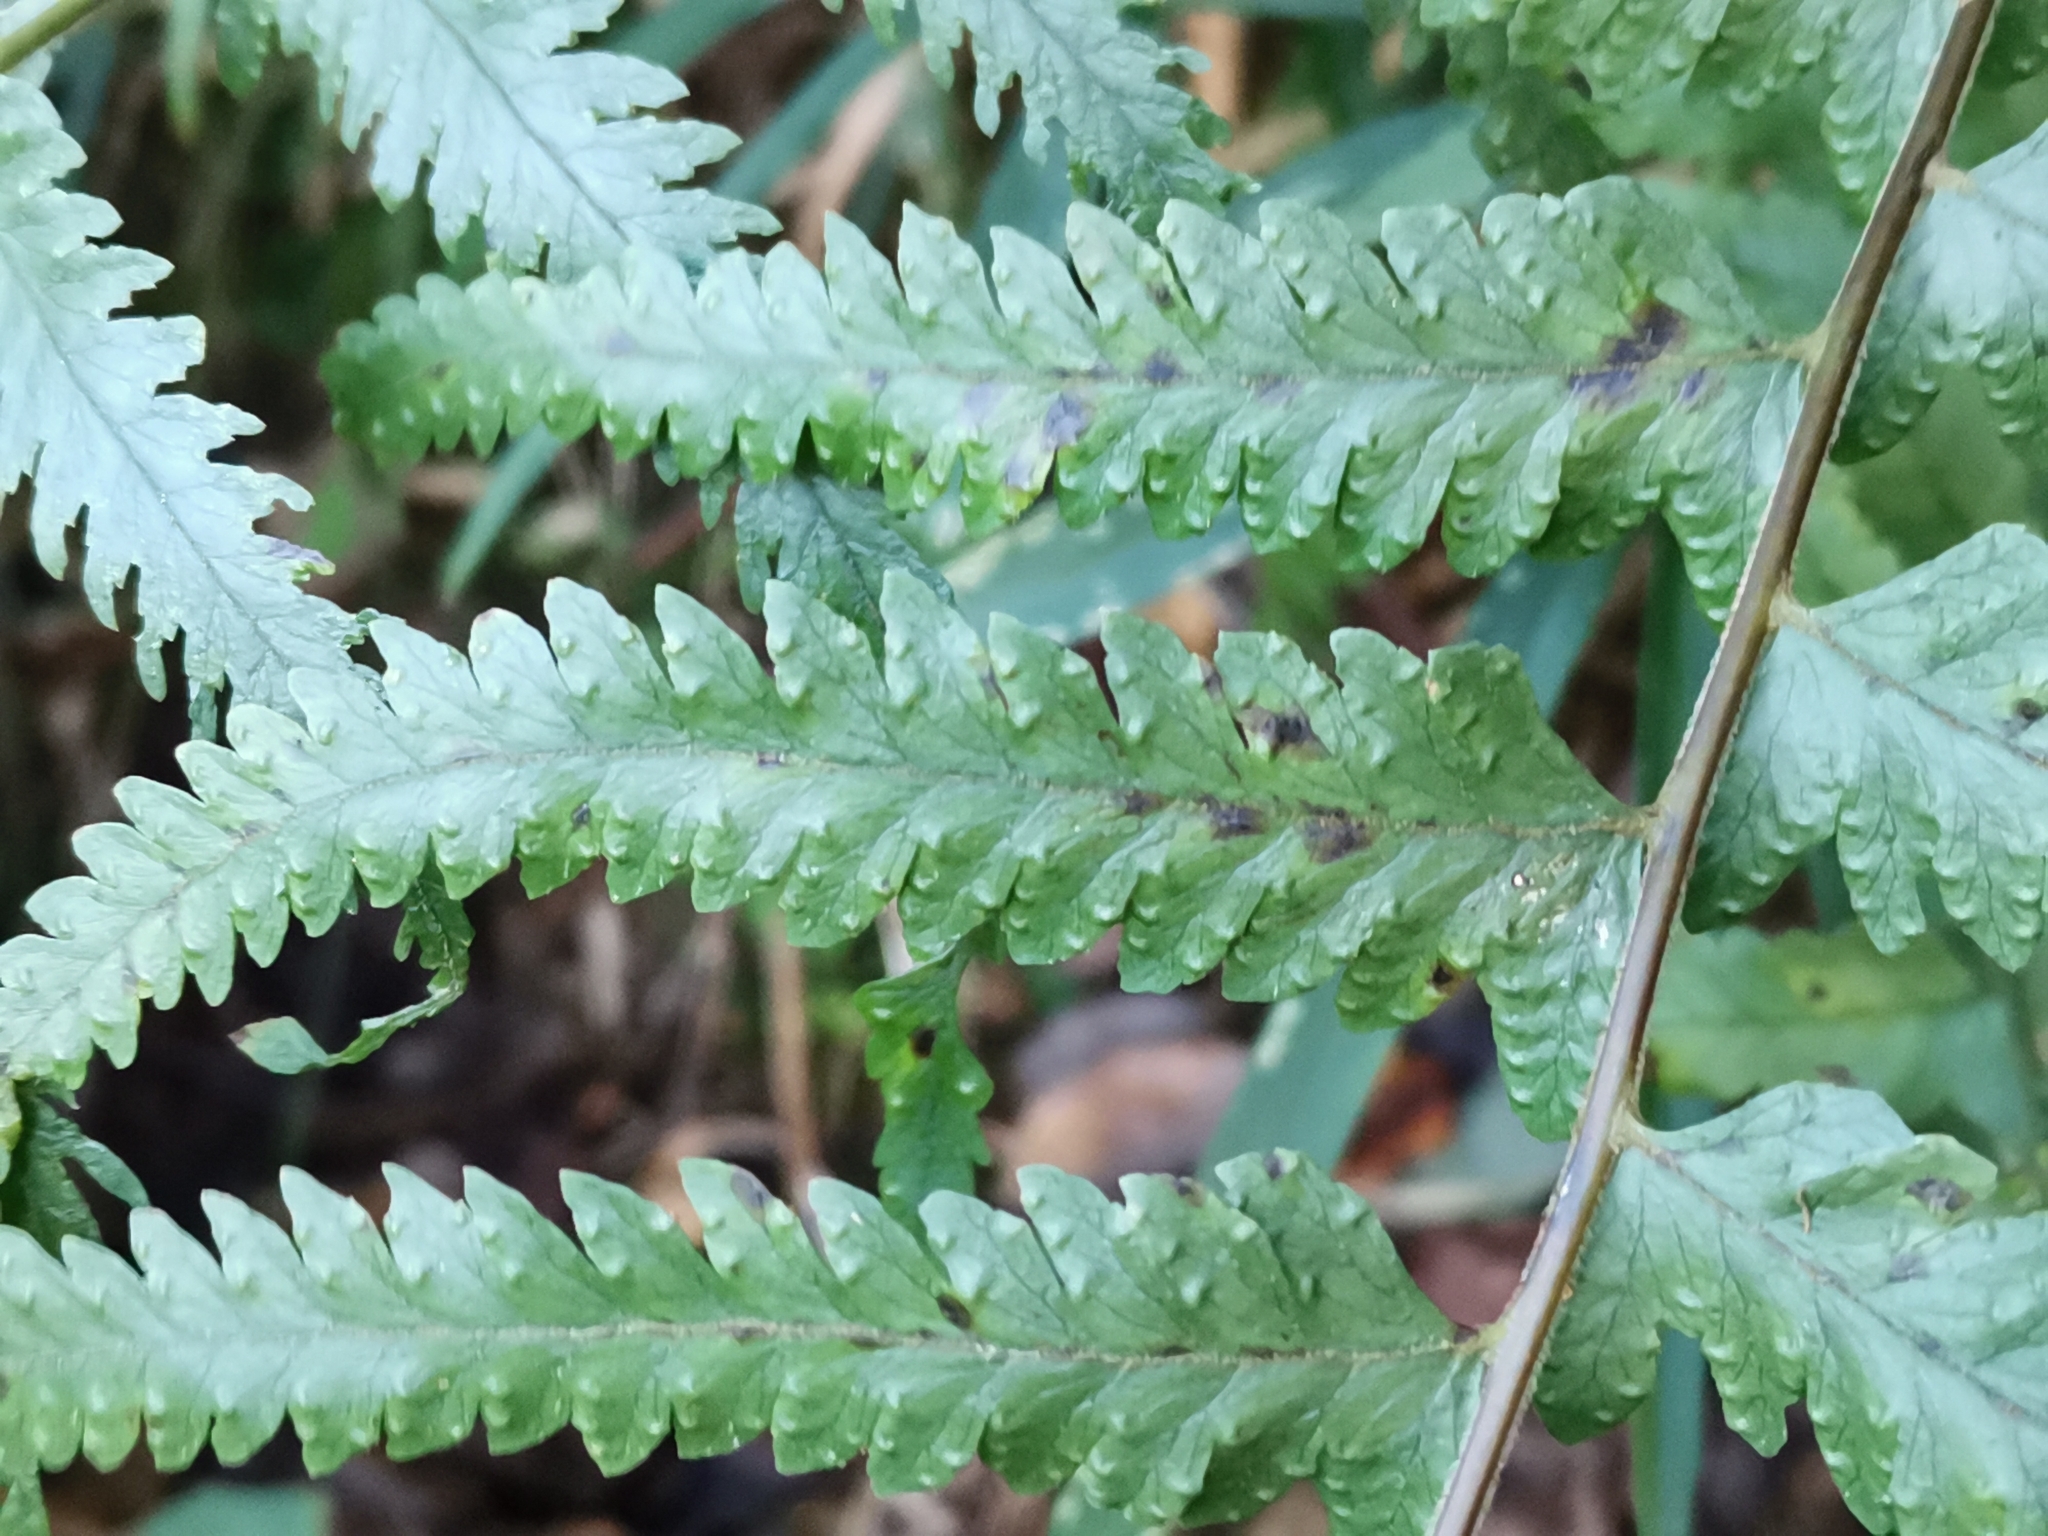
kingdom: Plantae
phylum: Tracheophyta
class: Polypodiopsida
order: Polypodiales
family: Dennstaedtiaceae
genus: Microlepia
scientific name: Microlepia marginata
